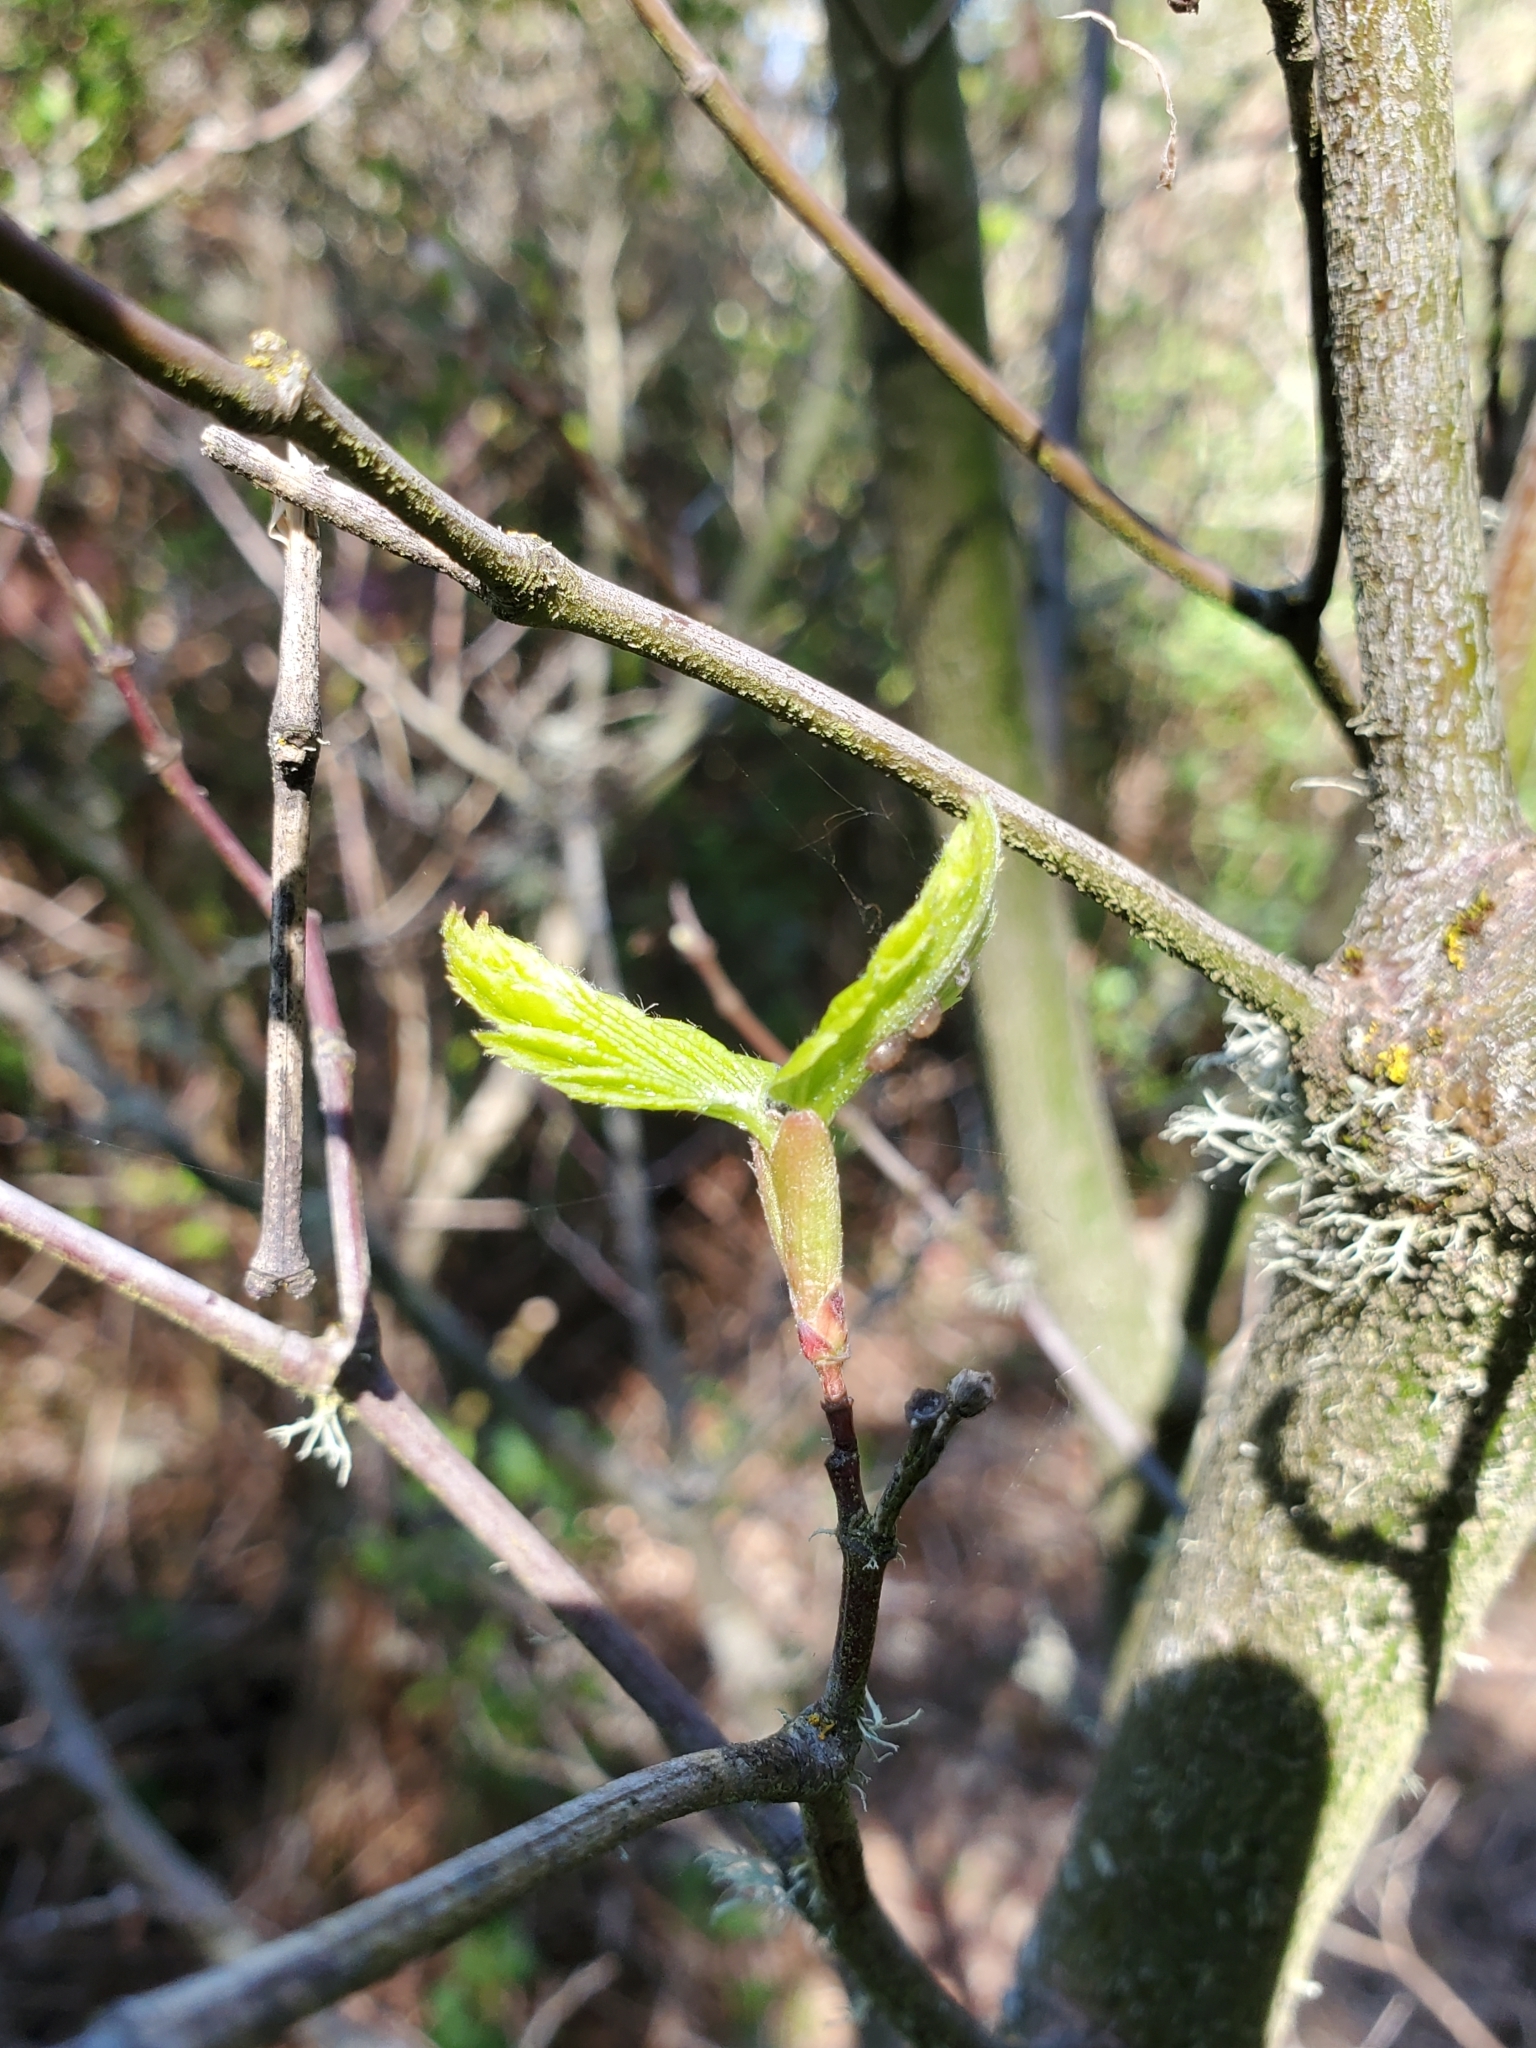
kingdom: Plantae
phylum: Tracheophyta
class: Magnoliopsida
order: Sapindales
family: Sapindaceae
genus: Acer
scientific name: Acer circinatum
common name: Vine maple
